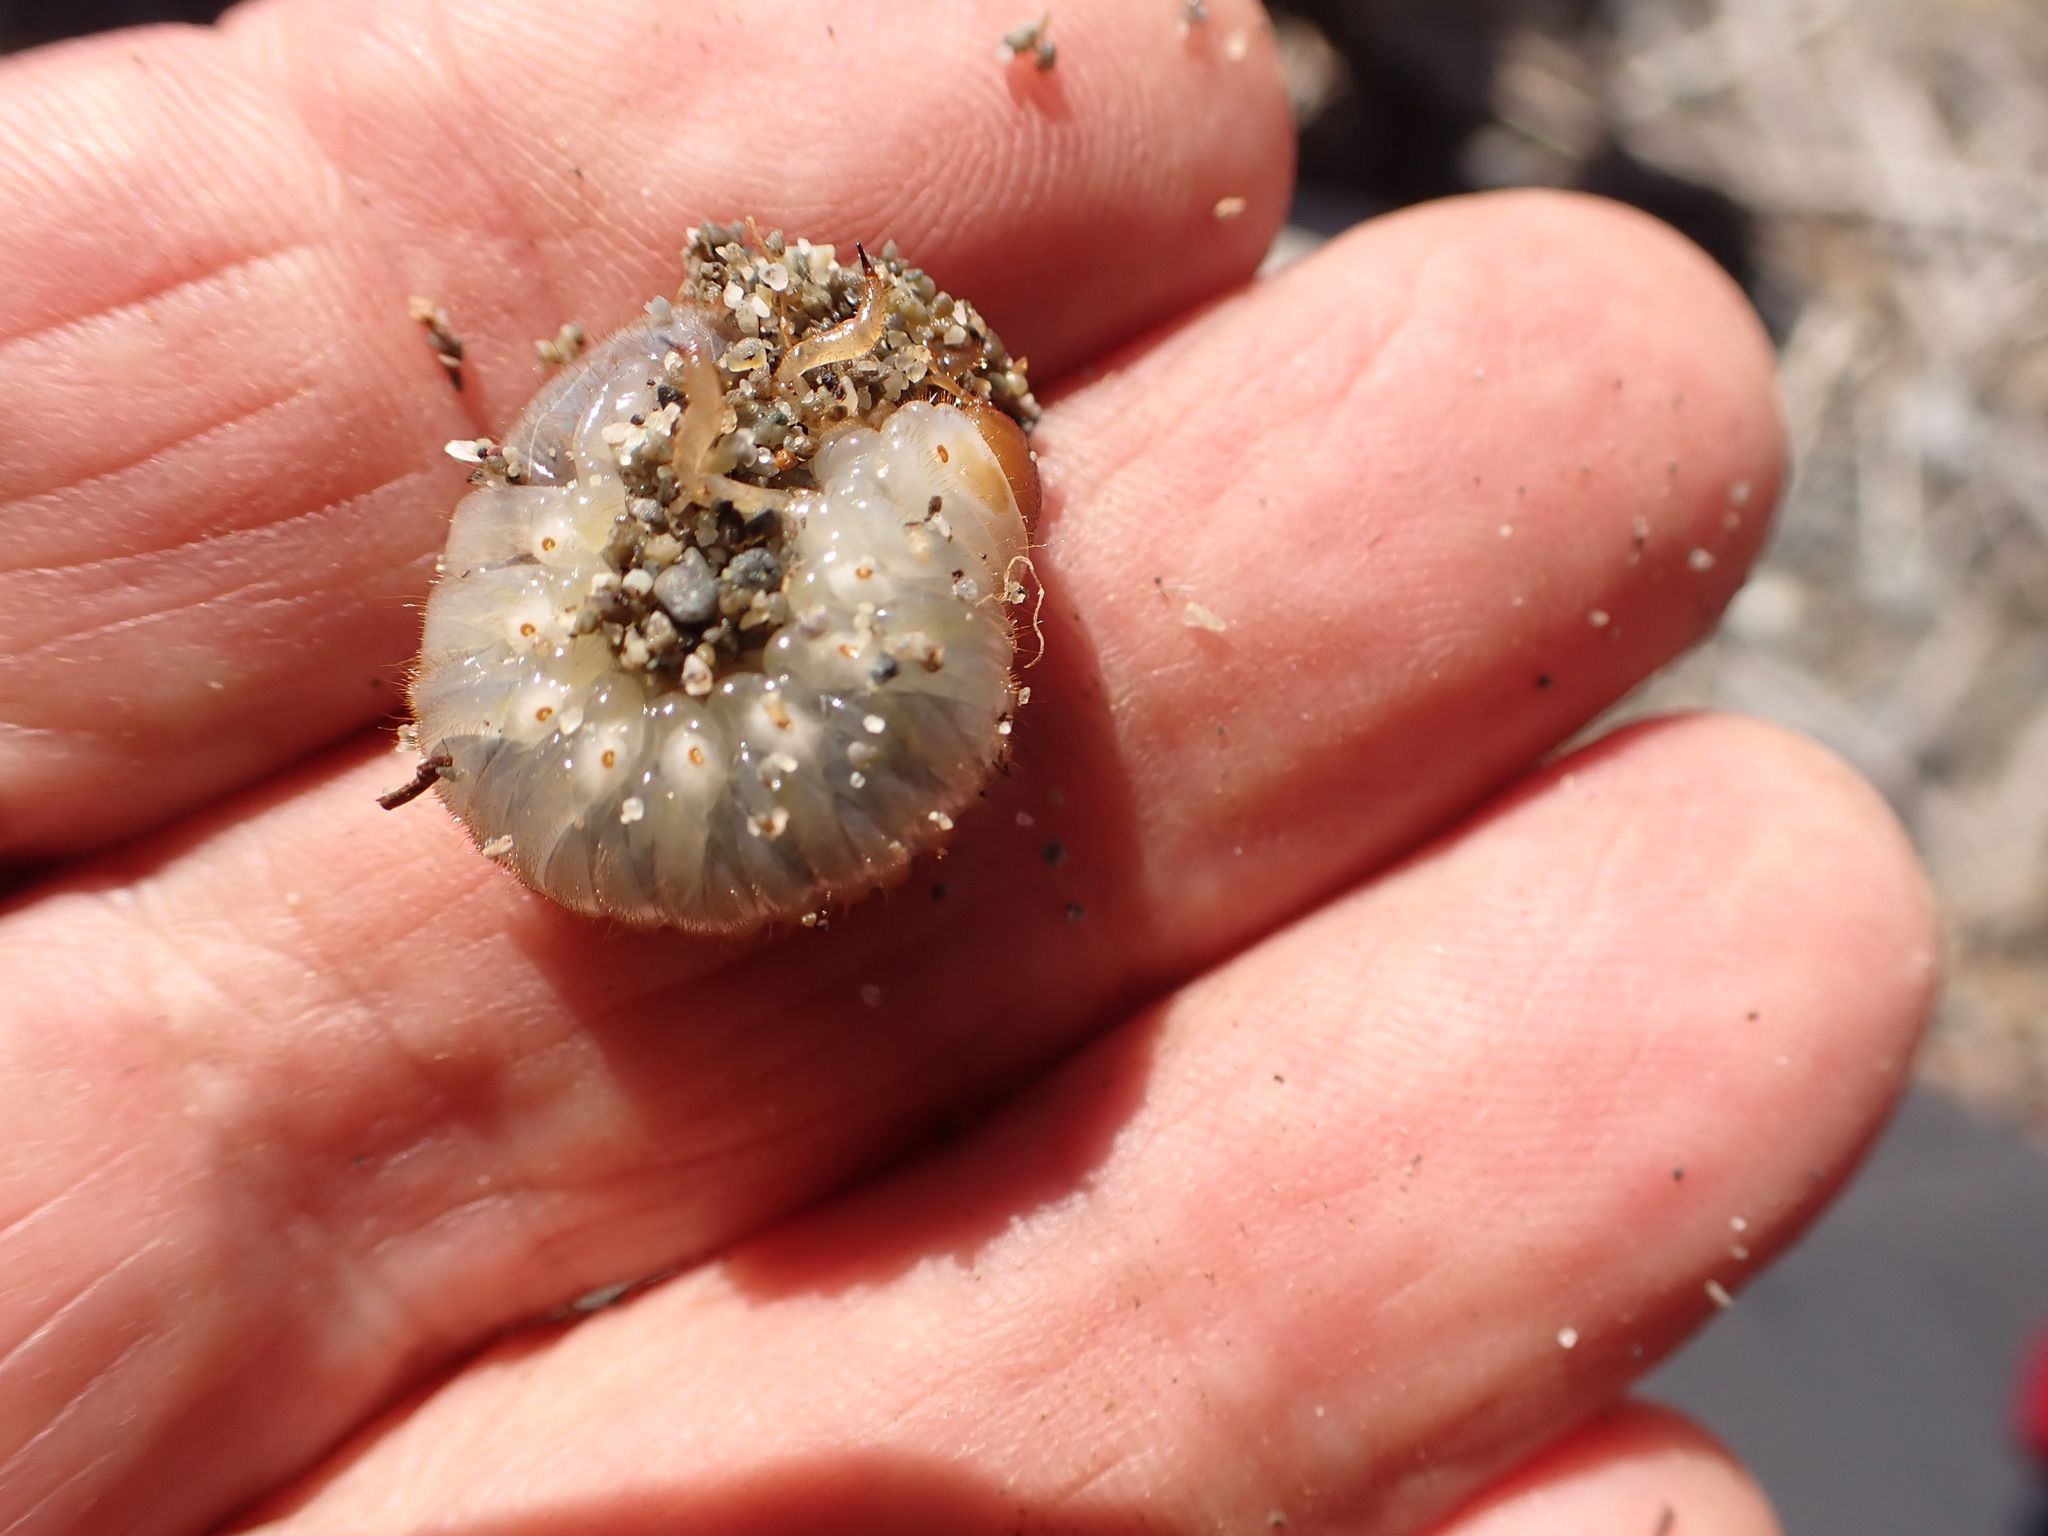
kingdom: Animalia
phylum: Arthropoda
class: Insecta
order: Coleoptera
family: Scarabaeidae
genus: Pericoptus
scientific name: Pericoptus truncatus
